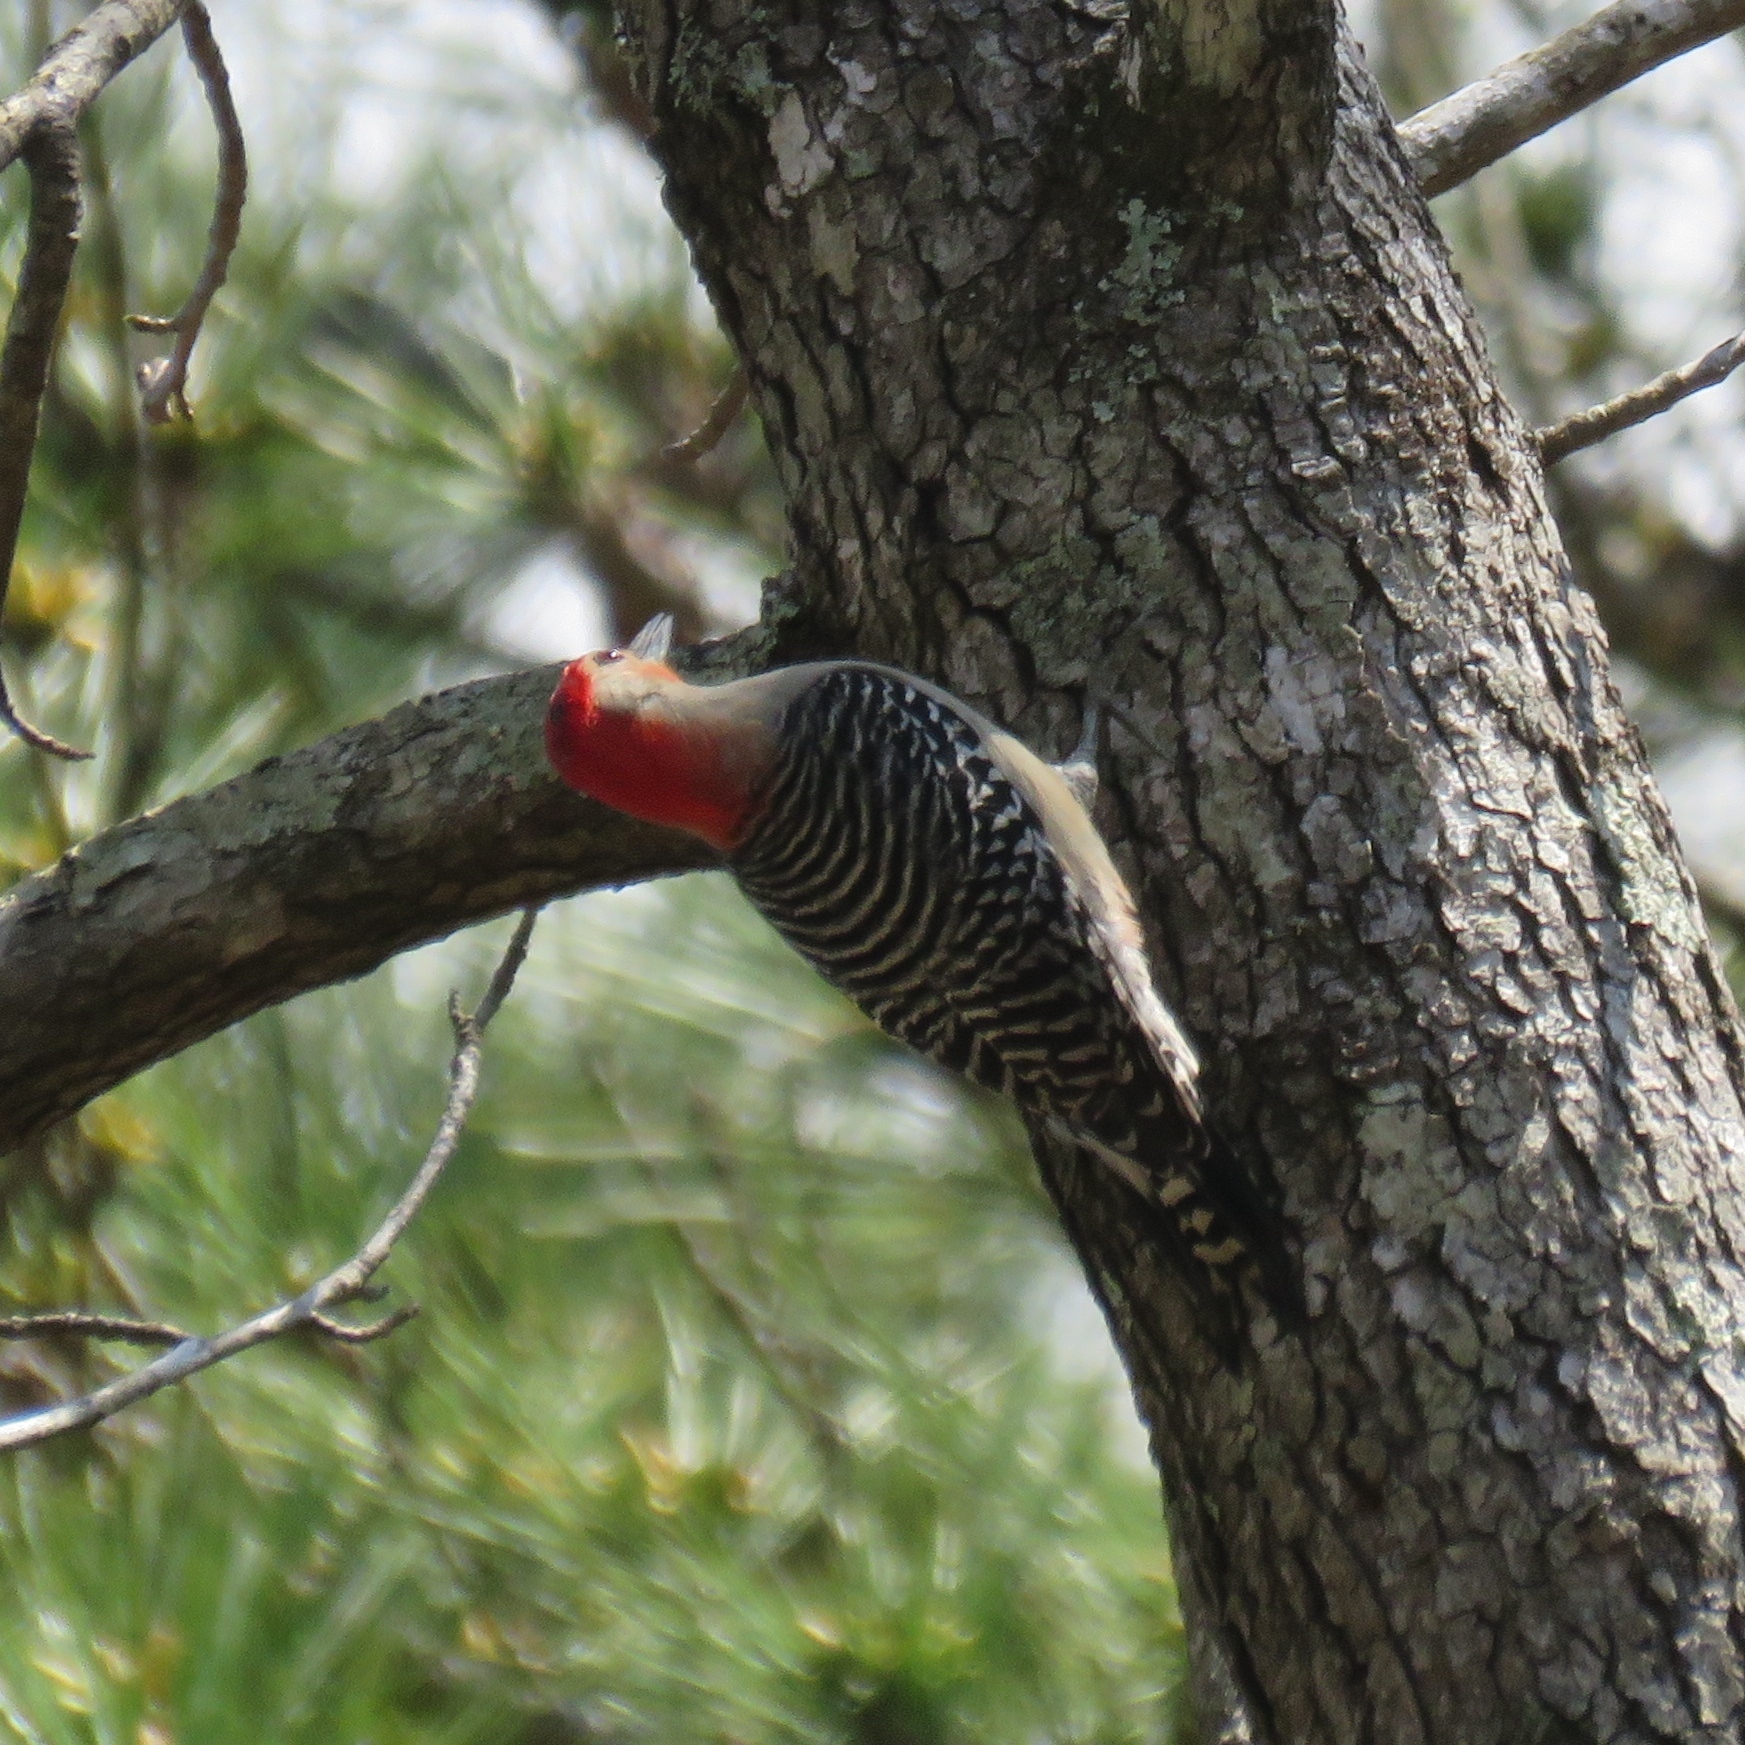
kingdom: Animalia
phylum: Chordata
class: Aves
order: Piciformes
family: Picidae
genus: Melanerpes
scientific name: Melanerpes carolinus
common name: Red-bellied woodpecker
